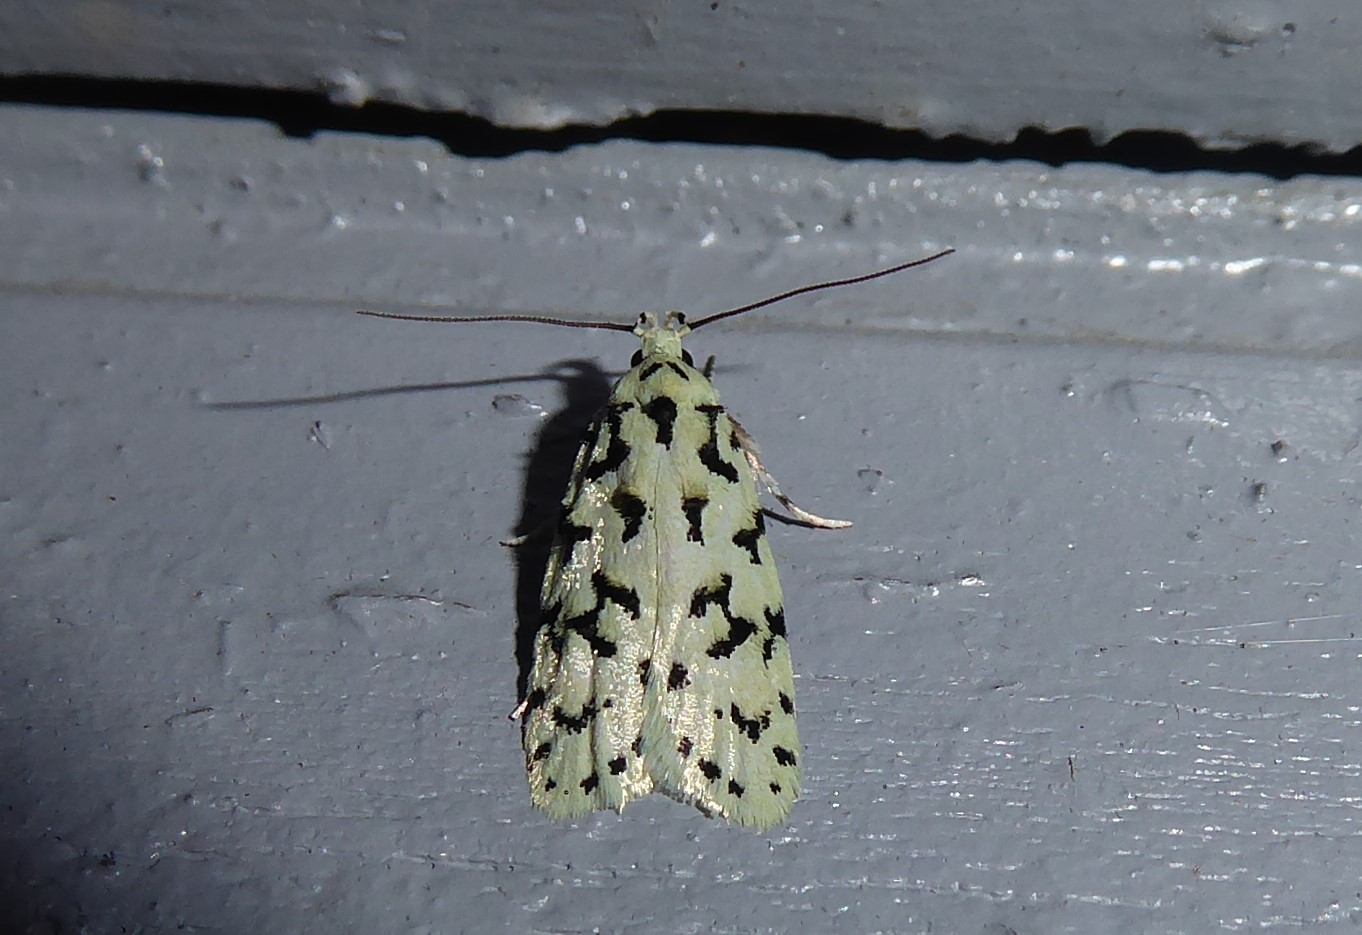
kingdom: Animalia
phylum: Arthropoda
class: Insecta
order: Lepidoptera
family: Oecophoridae
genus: Izatha
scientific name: Izatha huttoni
